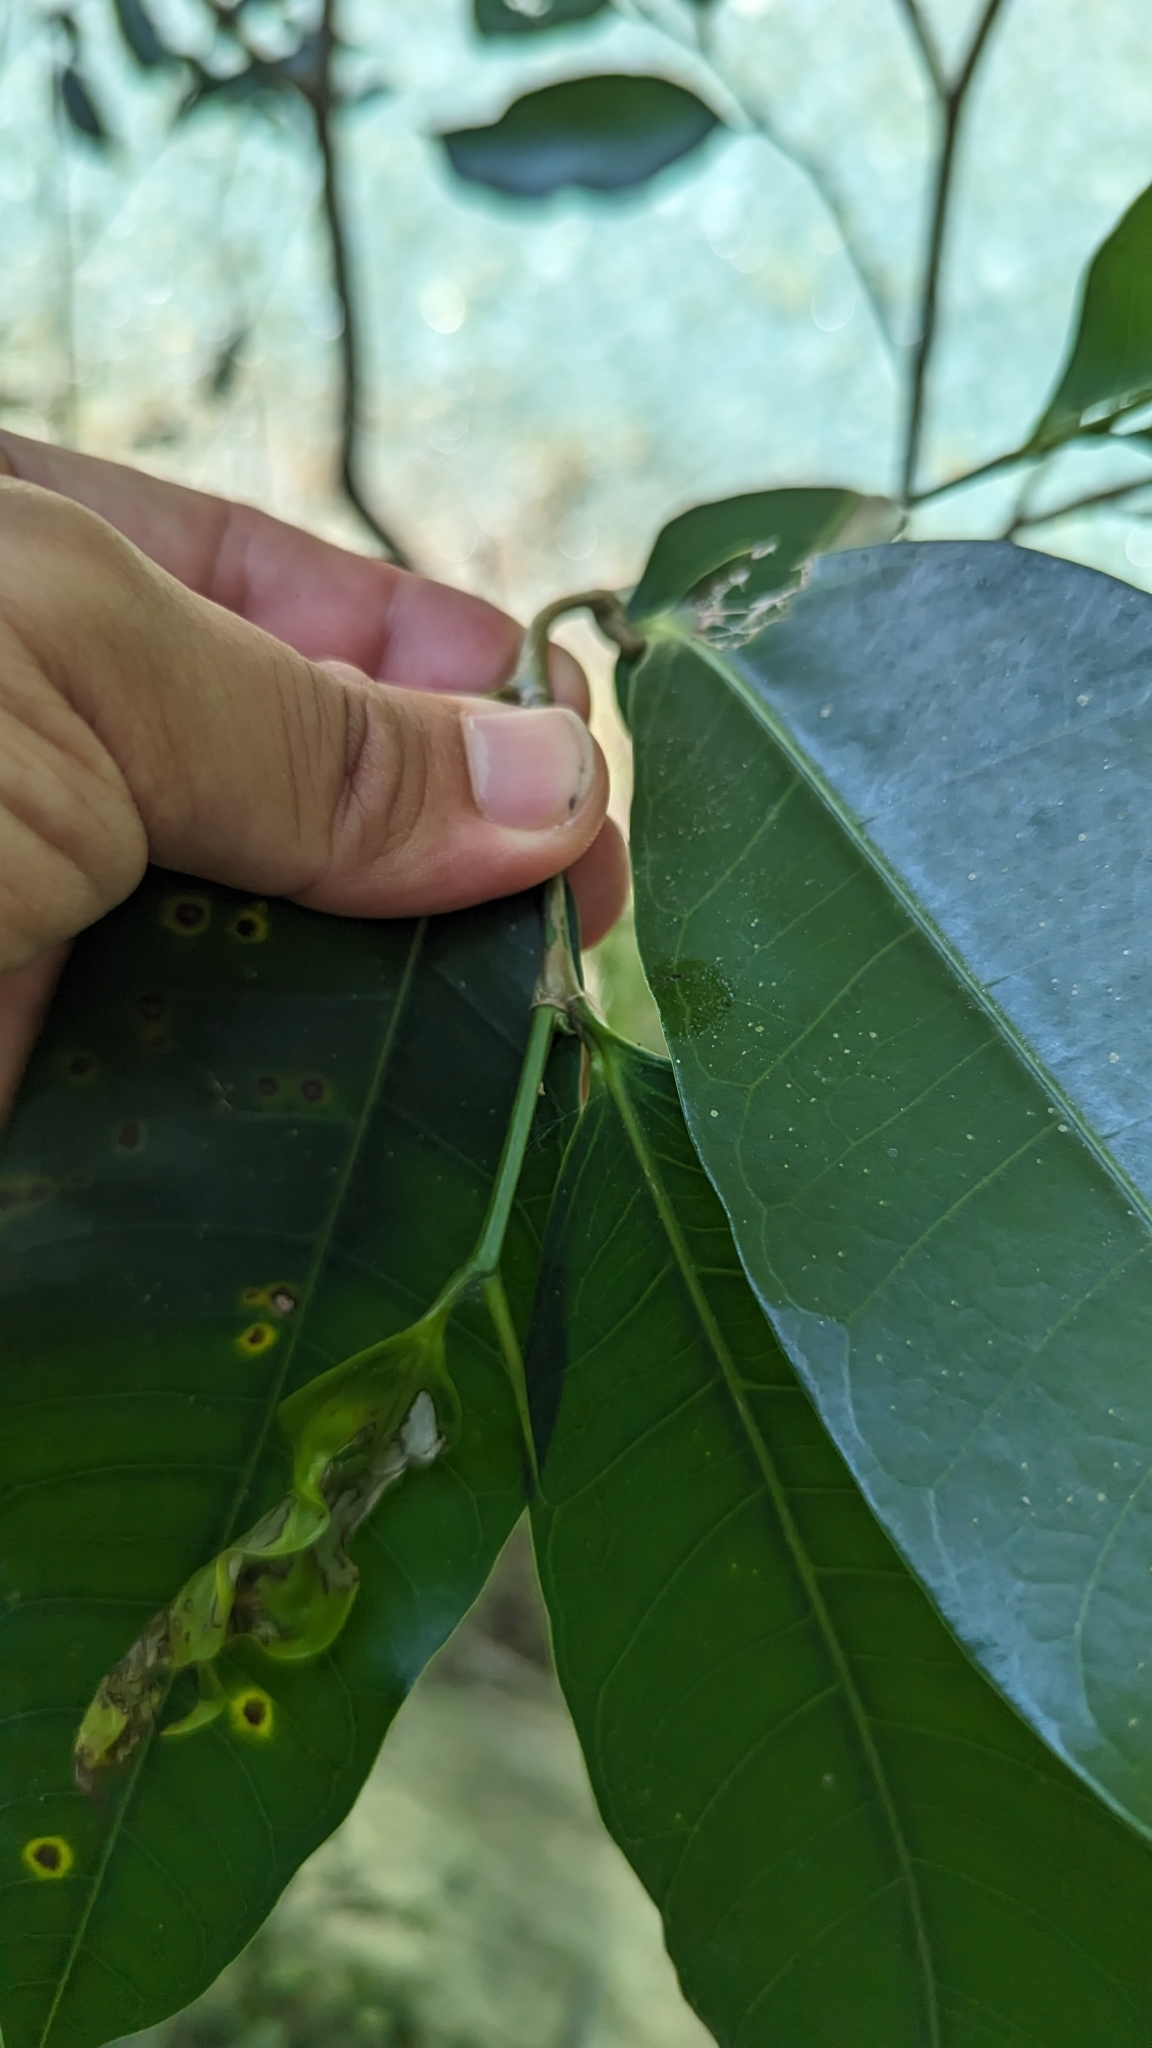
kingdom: Plantae
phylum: Tracheophyta
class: Magnoliopsida
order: Rosales
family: Moraceae
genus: Ficus
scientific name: Ficus virgata
